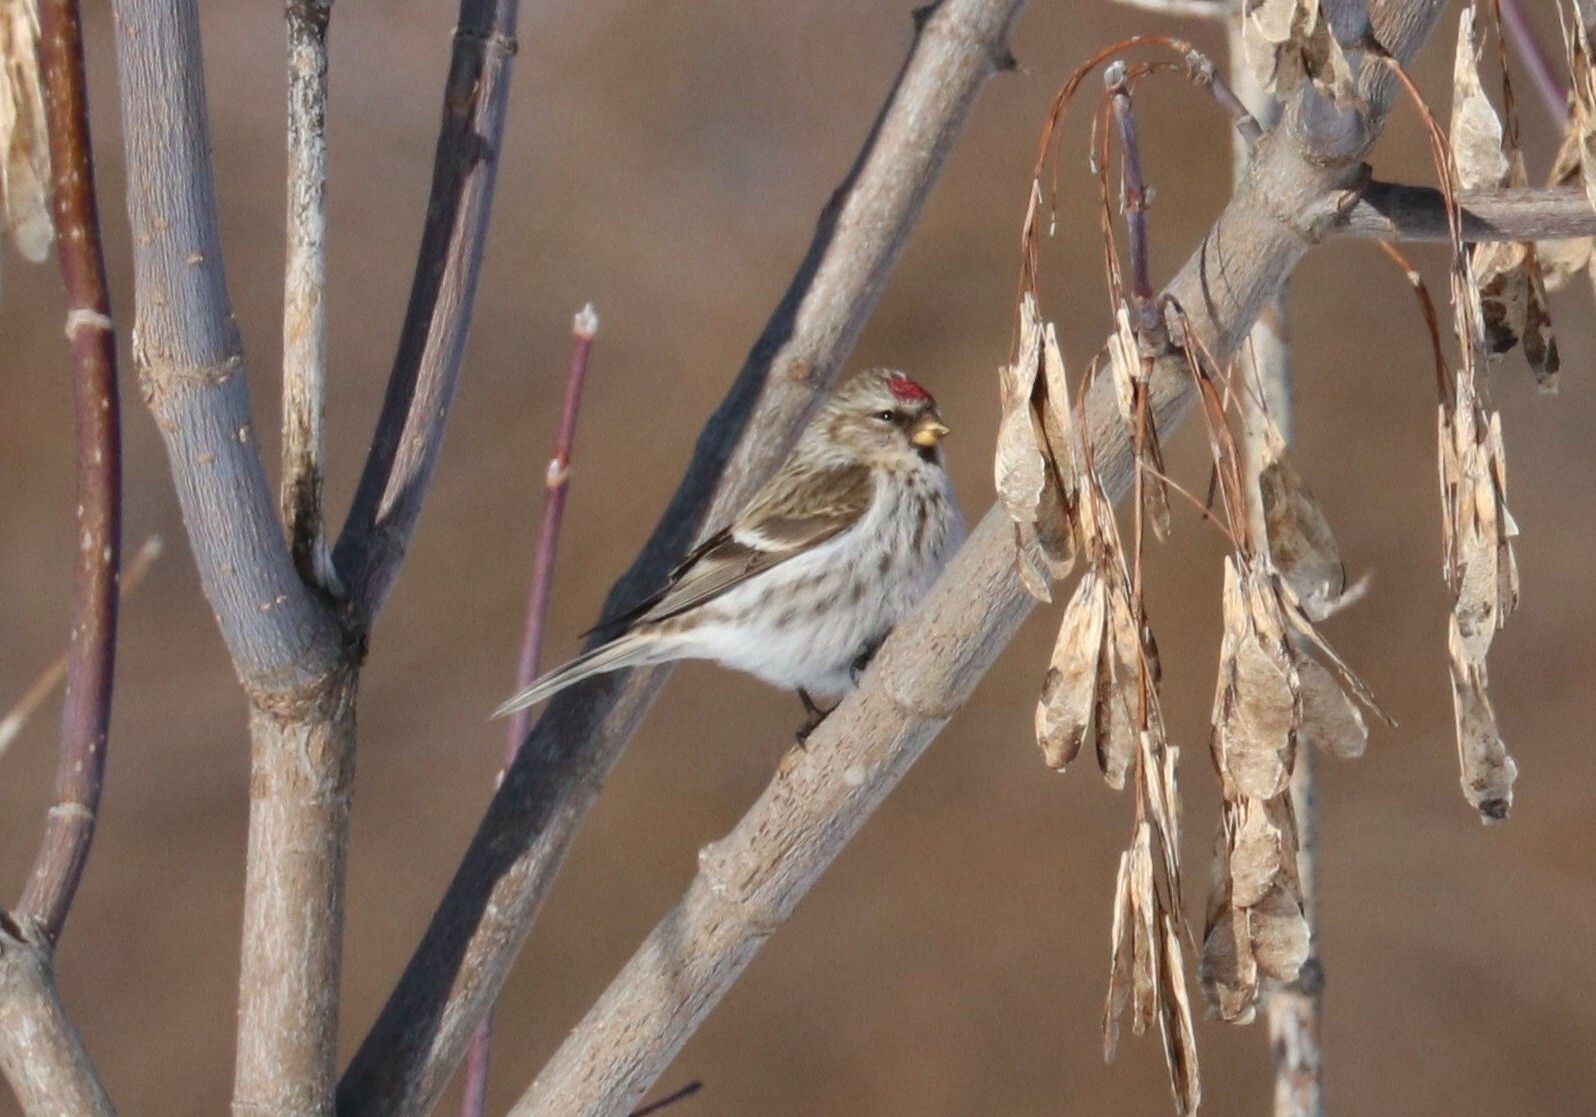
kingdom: Animalia
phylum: Chordata
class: Aves
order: Passeriformes
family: Fringillidae
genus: Acanthis
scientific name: Acanthis flammea
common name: Common redpoll
